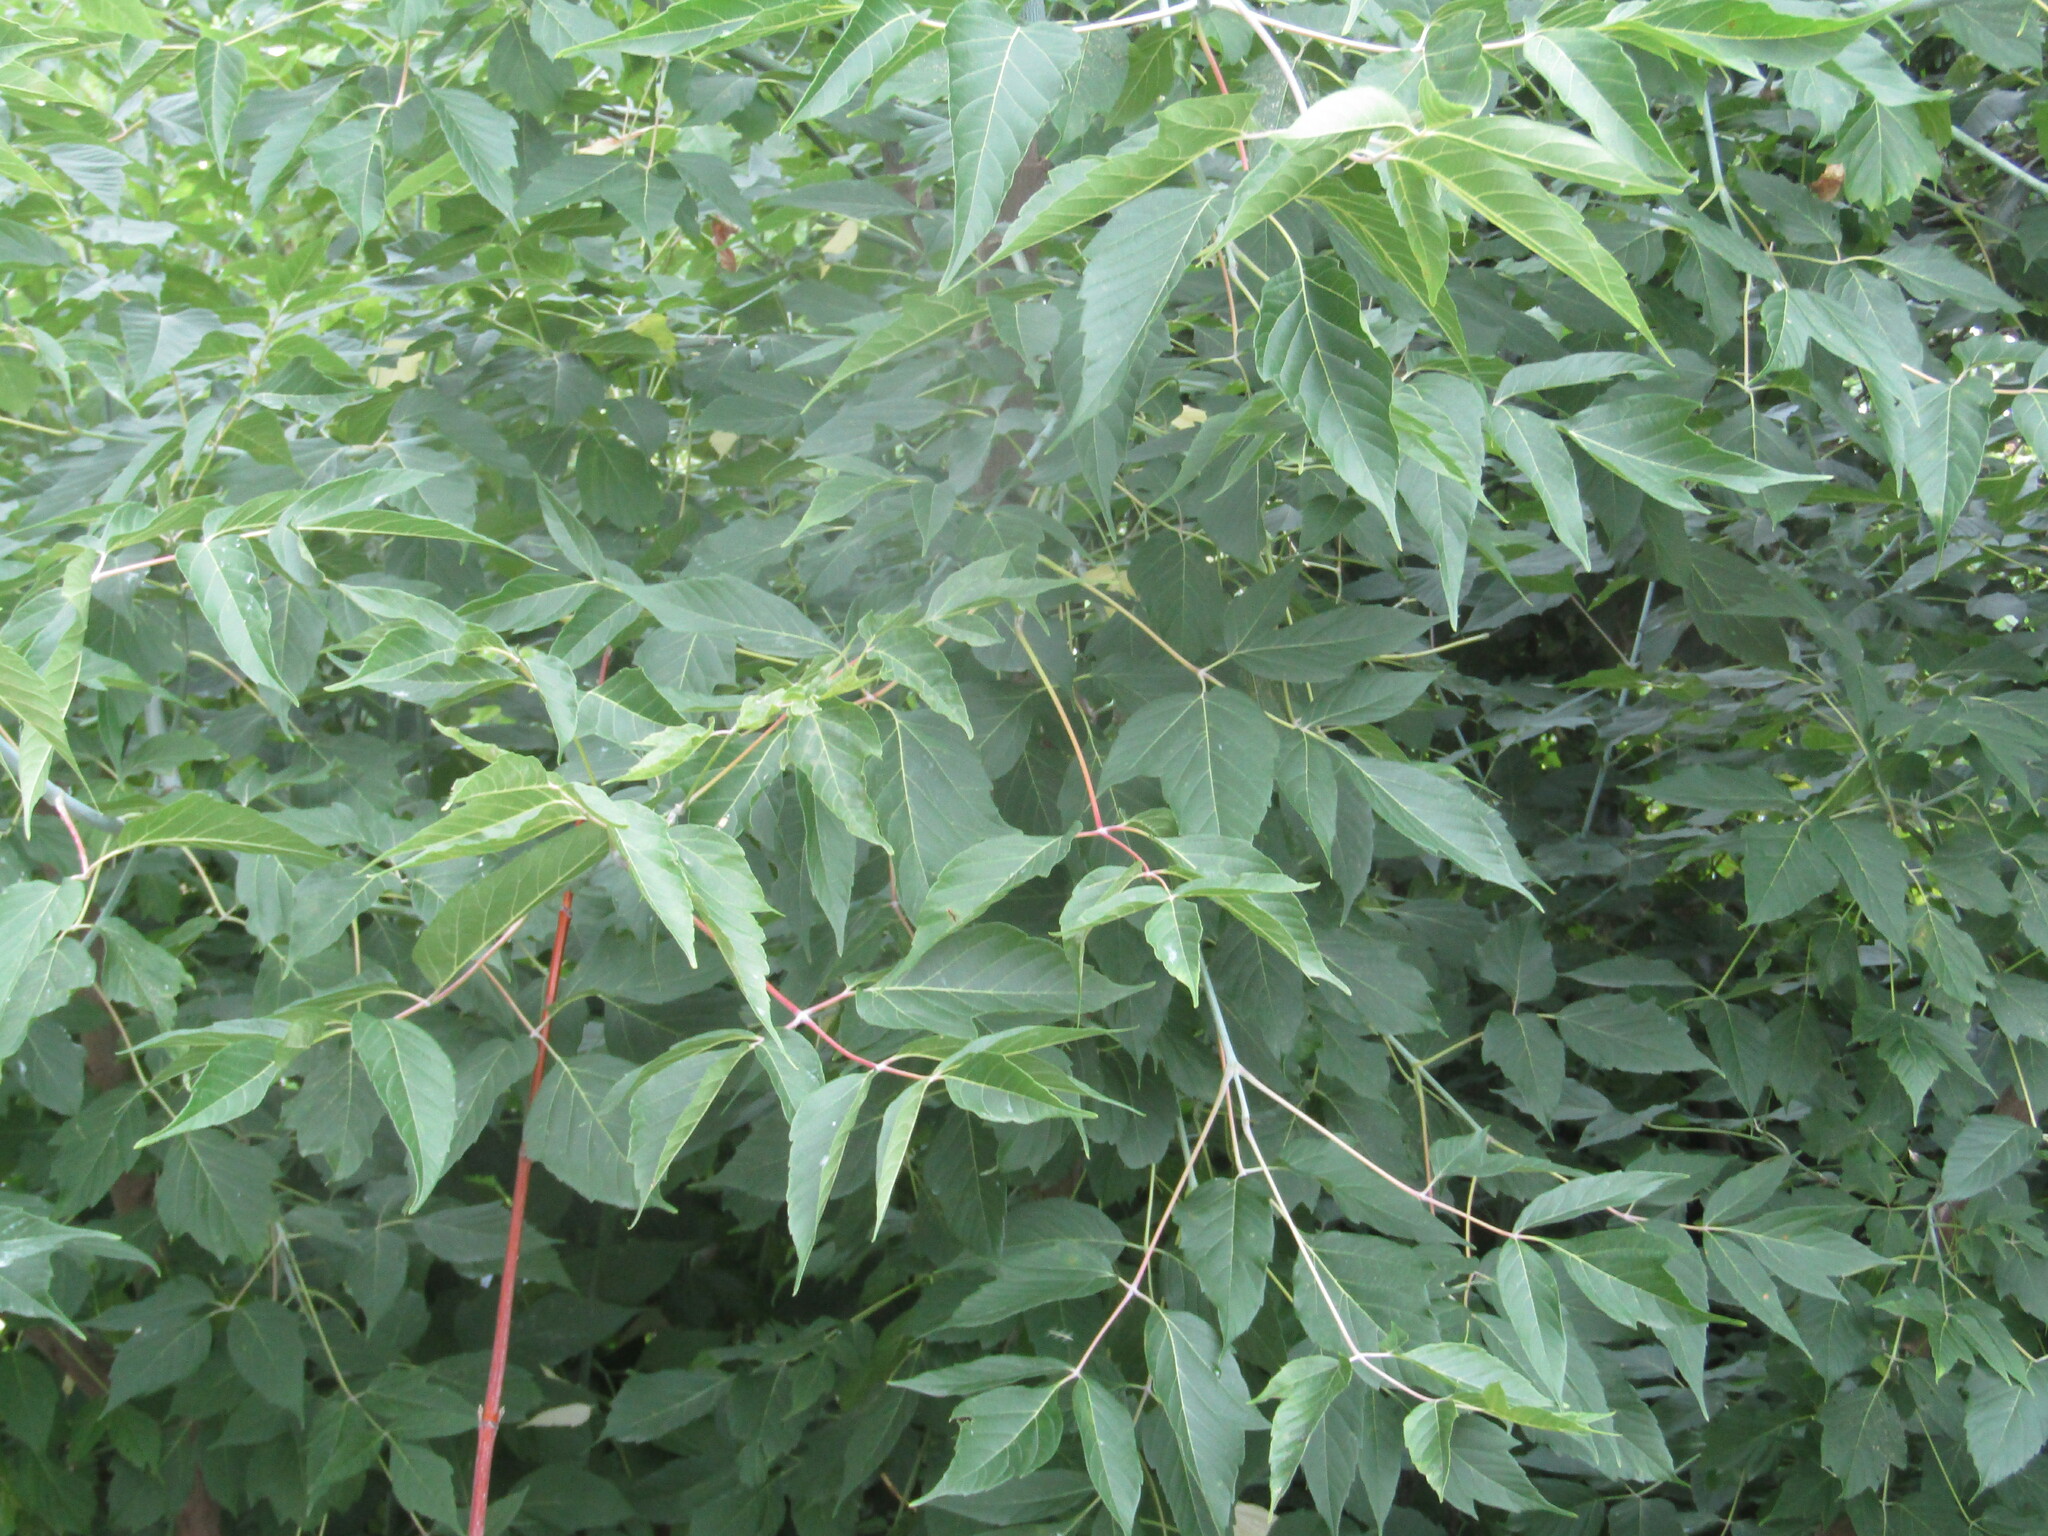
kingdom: Plantae
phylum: Tracheophyta
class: Magnoliopsida
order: Sapindales
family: Sapindaceae
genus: Acer
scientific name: Acer negundo
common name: Ashleaf maple
